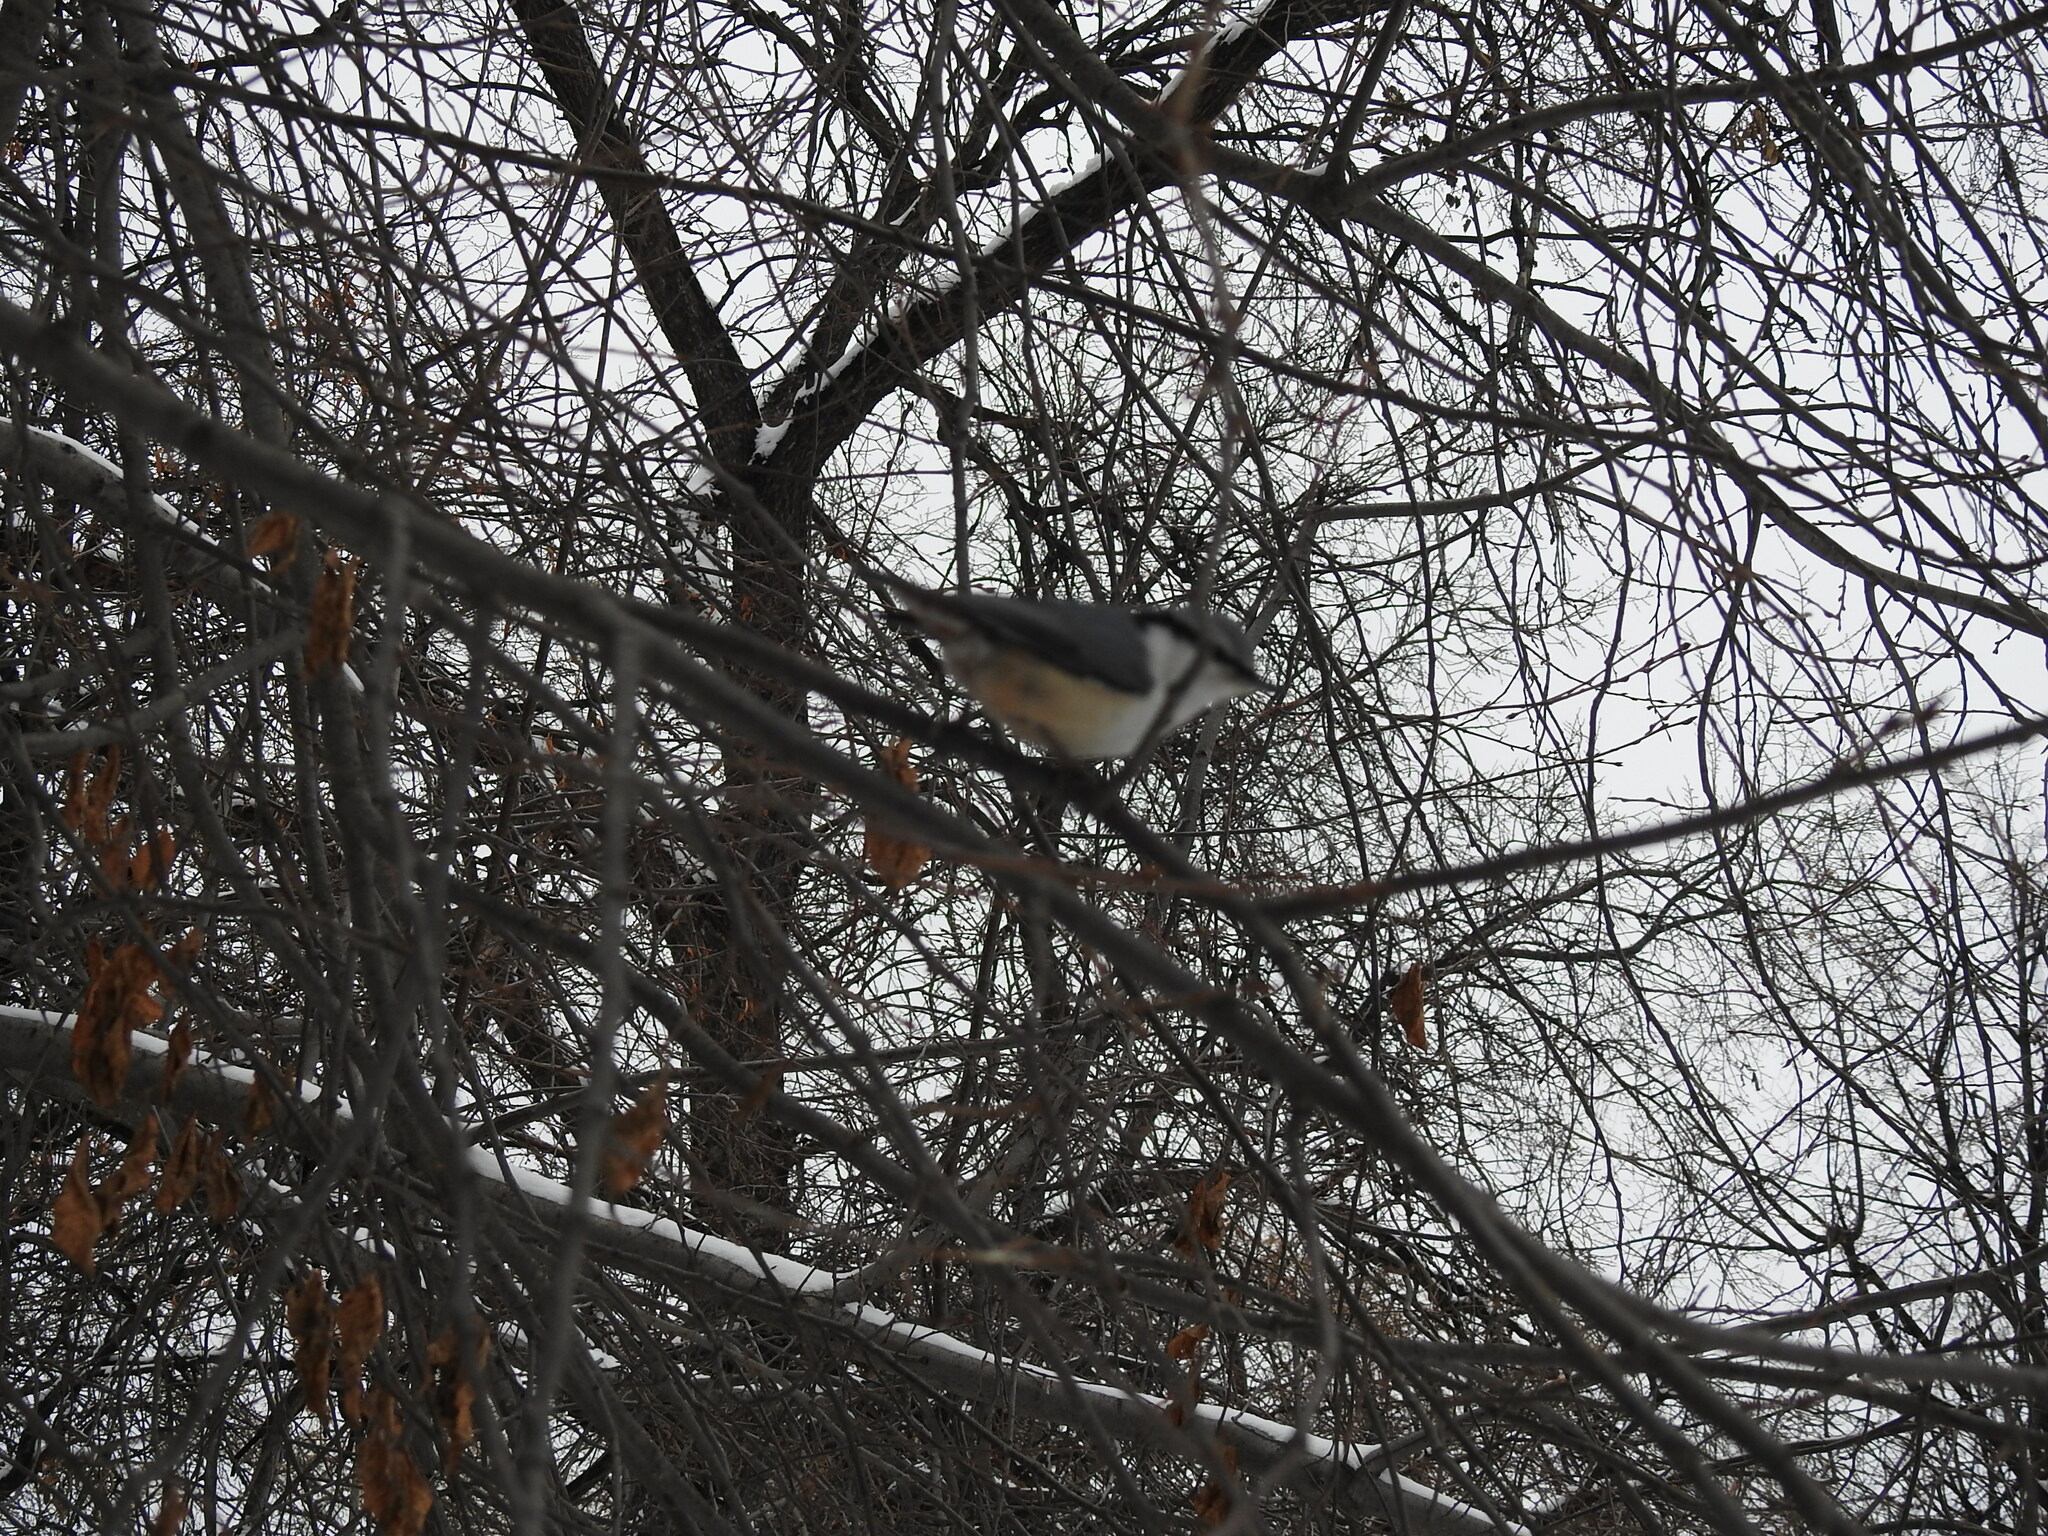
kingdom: Animalia
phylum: Chordata
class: Aves
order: Passeriformes
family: Sittidae
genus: Sitta
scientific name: Sitta europaea
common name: Eurasian nuthatch
